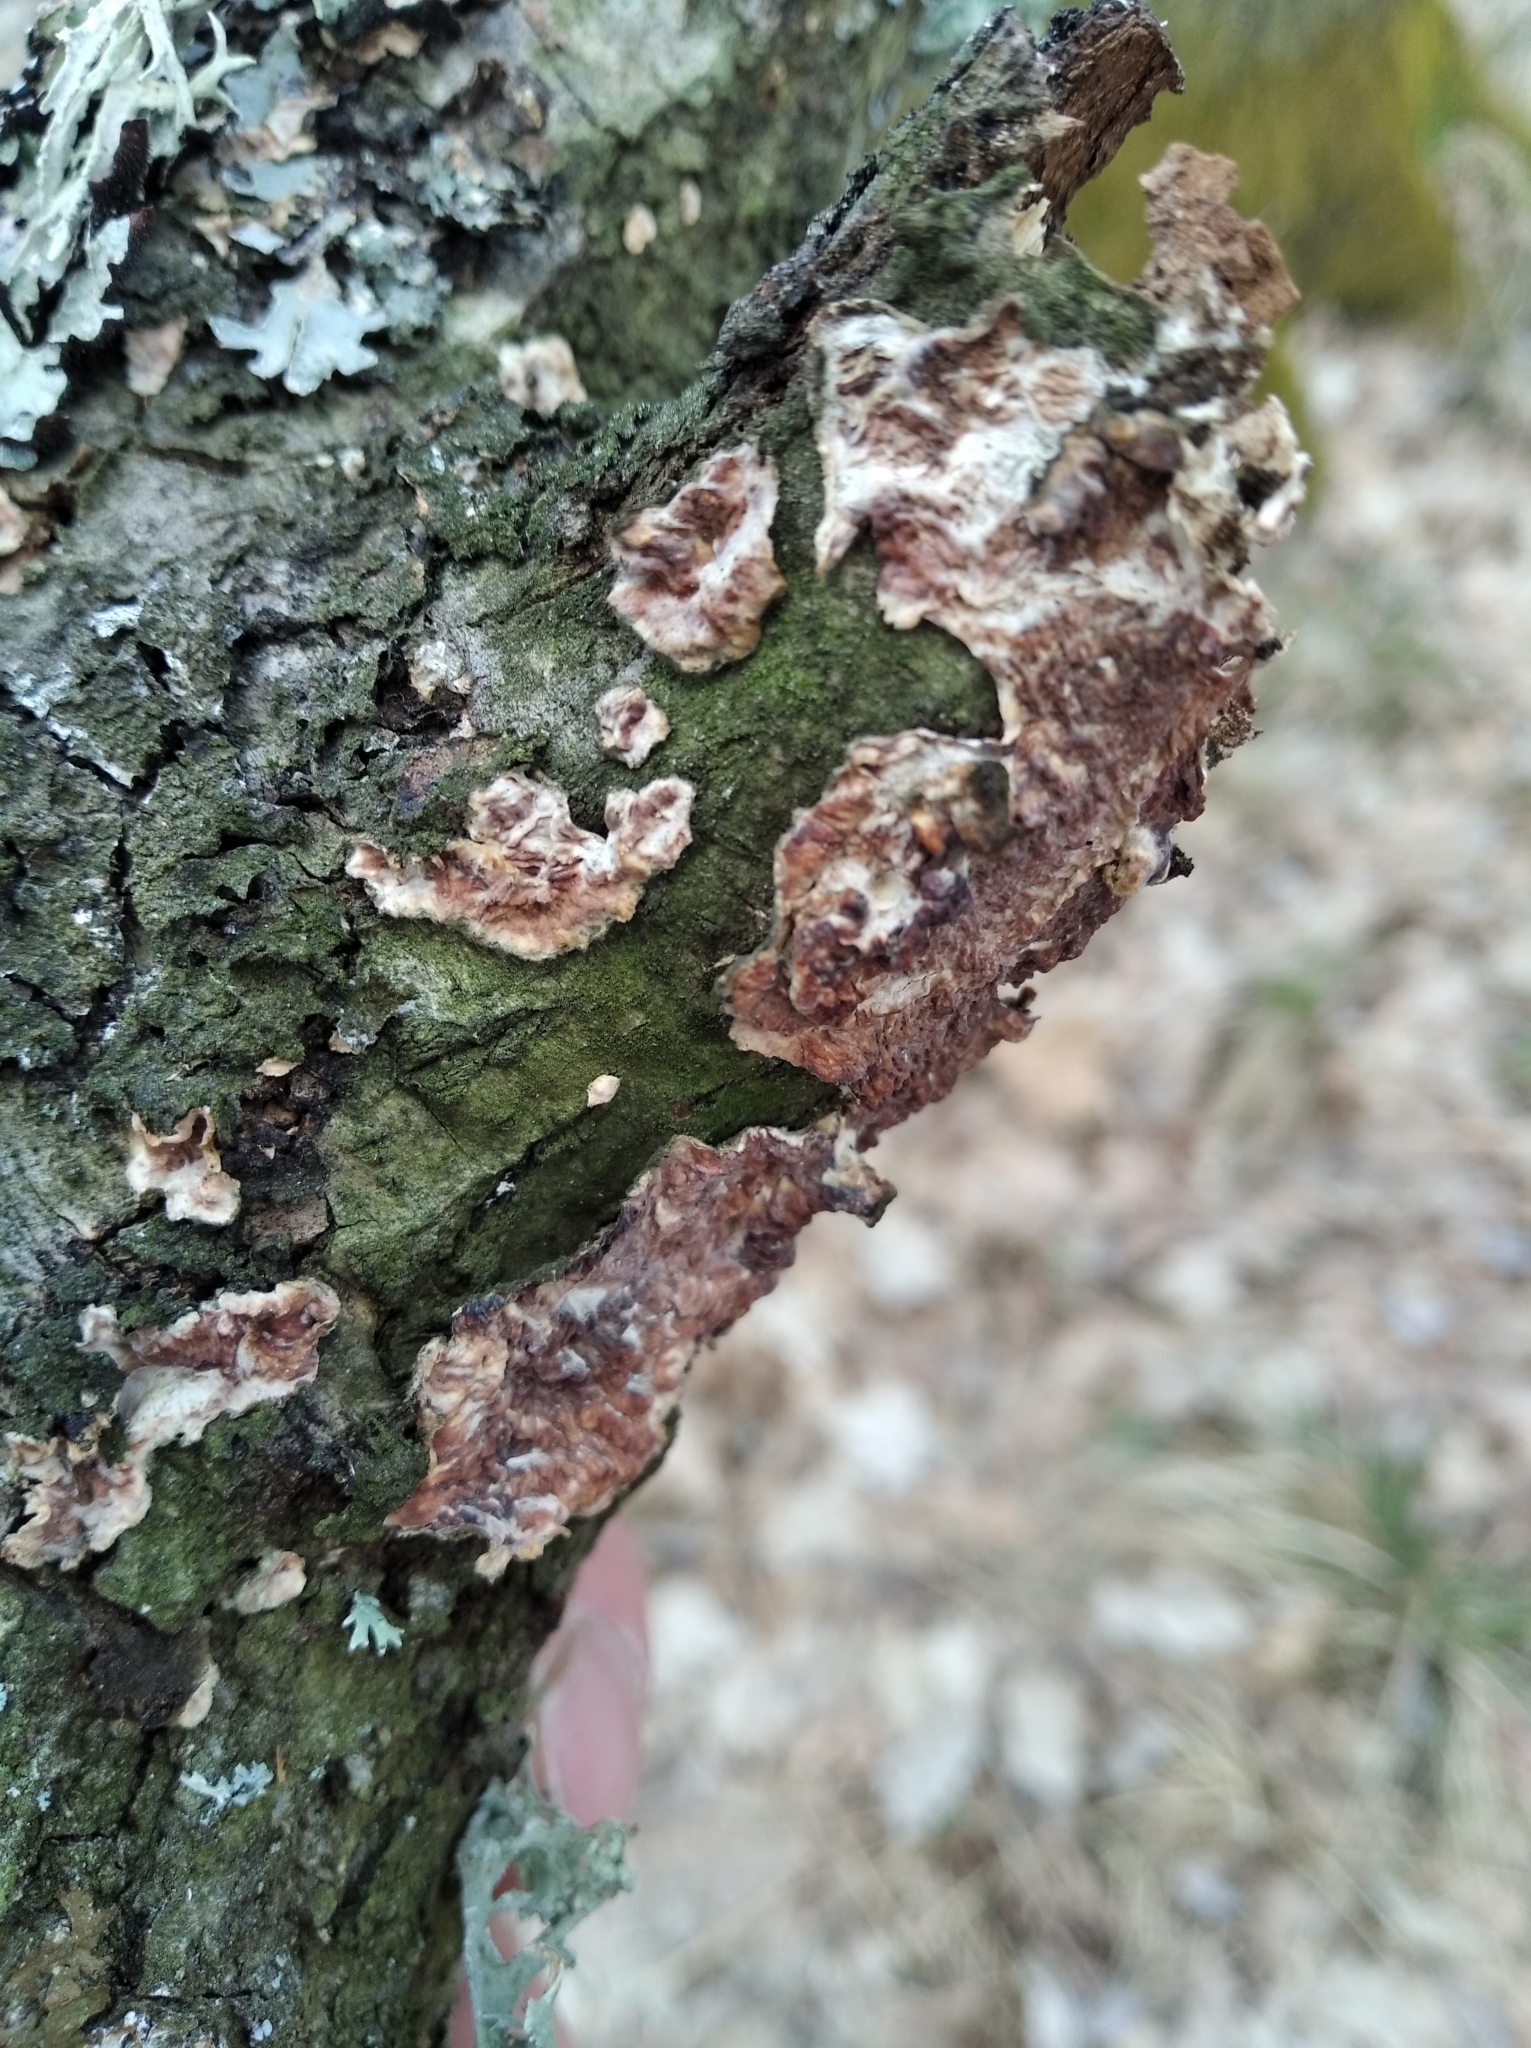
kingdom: Fungi
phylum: Basidiomycota
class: Agaricomycetes
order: Agaricales
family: Cyphellaceae
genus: Chondrostereum
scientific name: Chondrostereum purpureum
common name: Silver leaf disease
